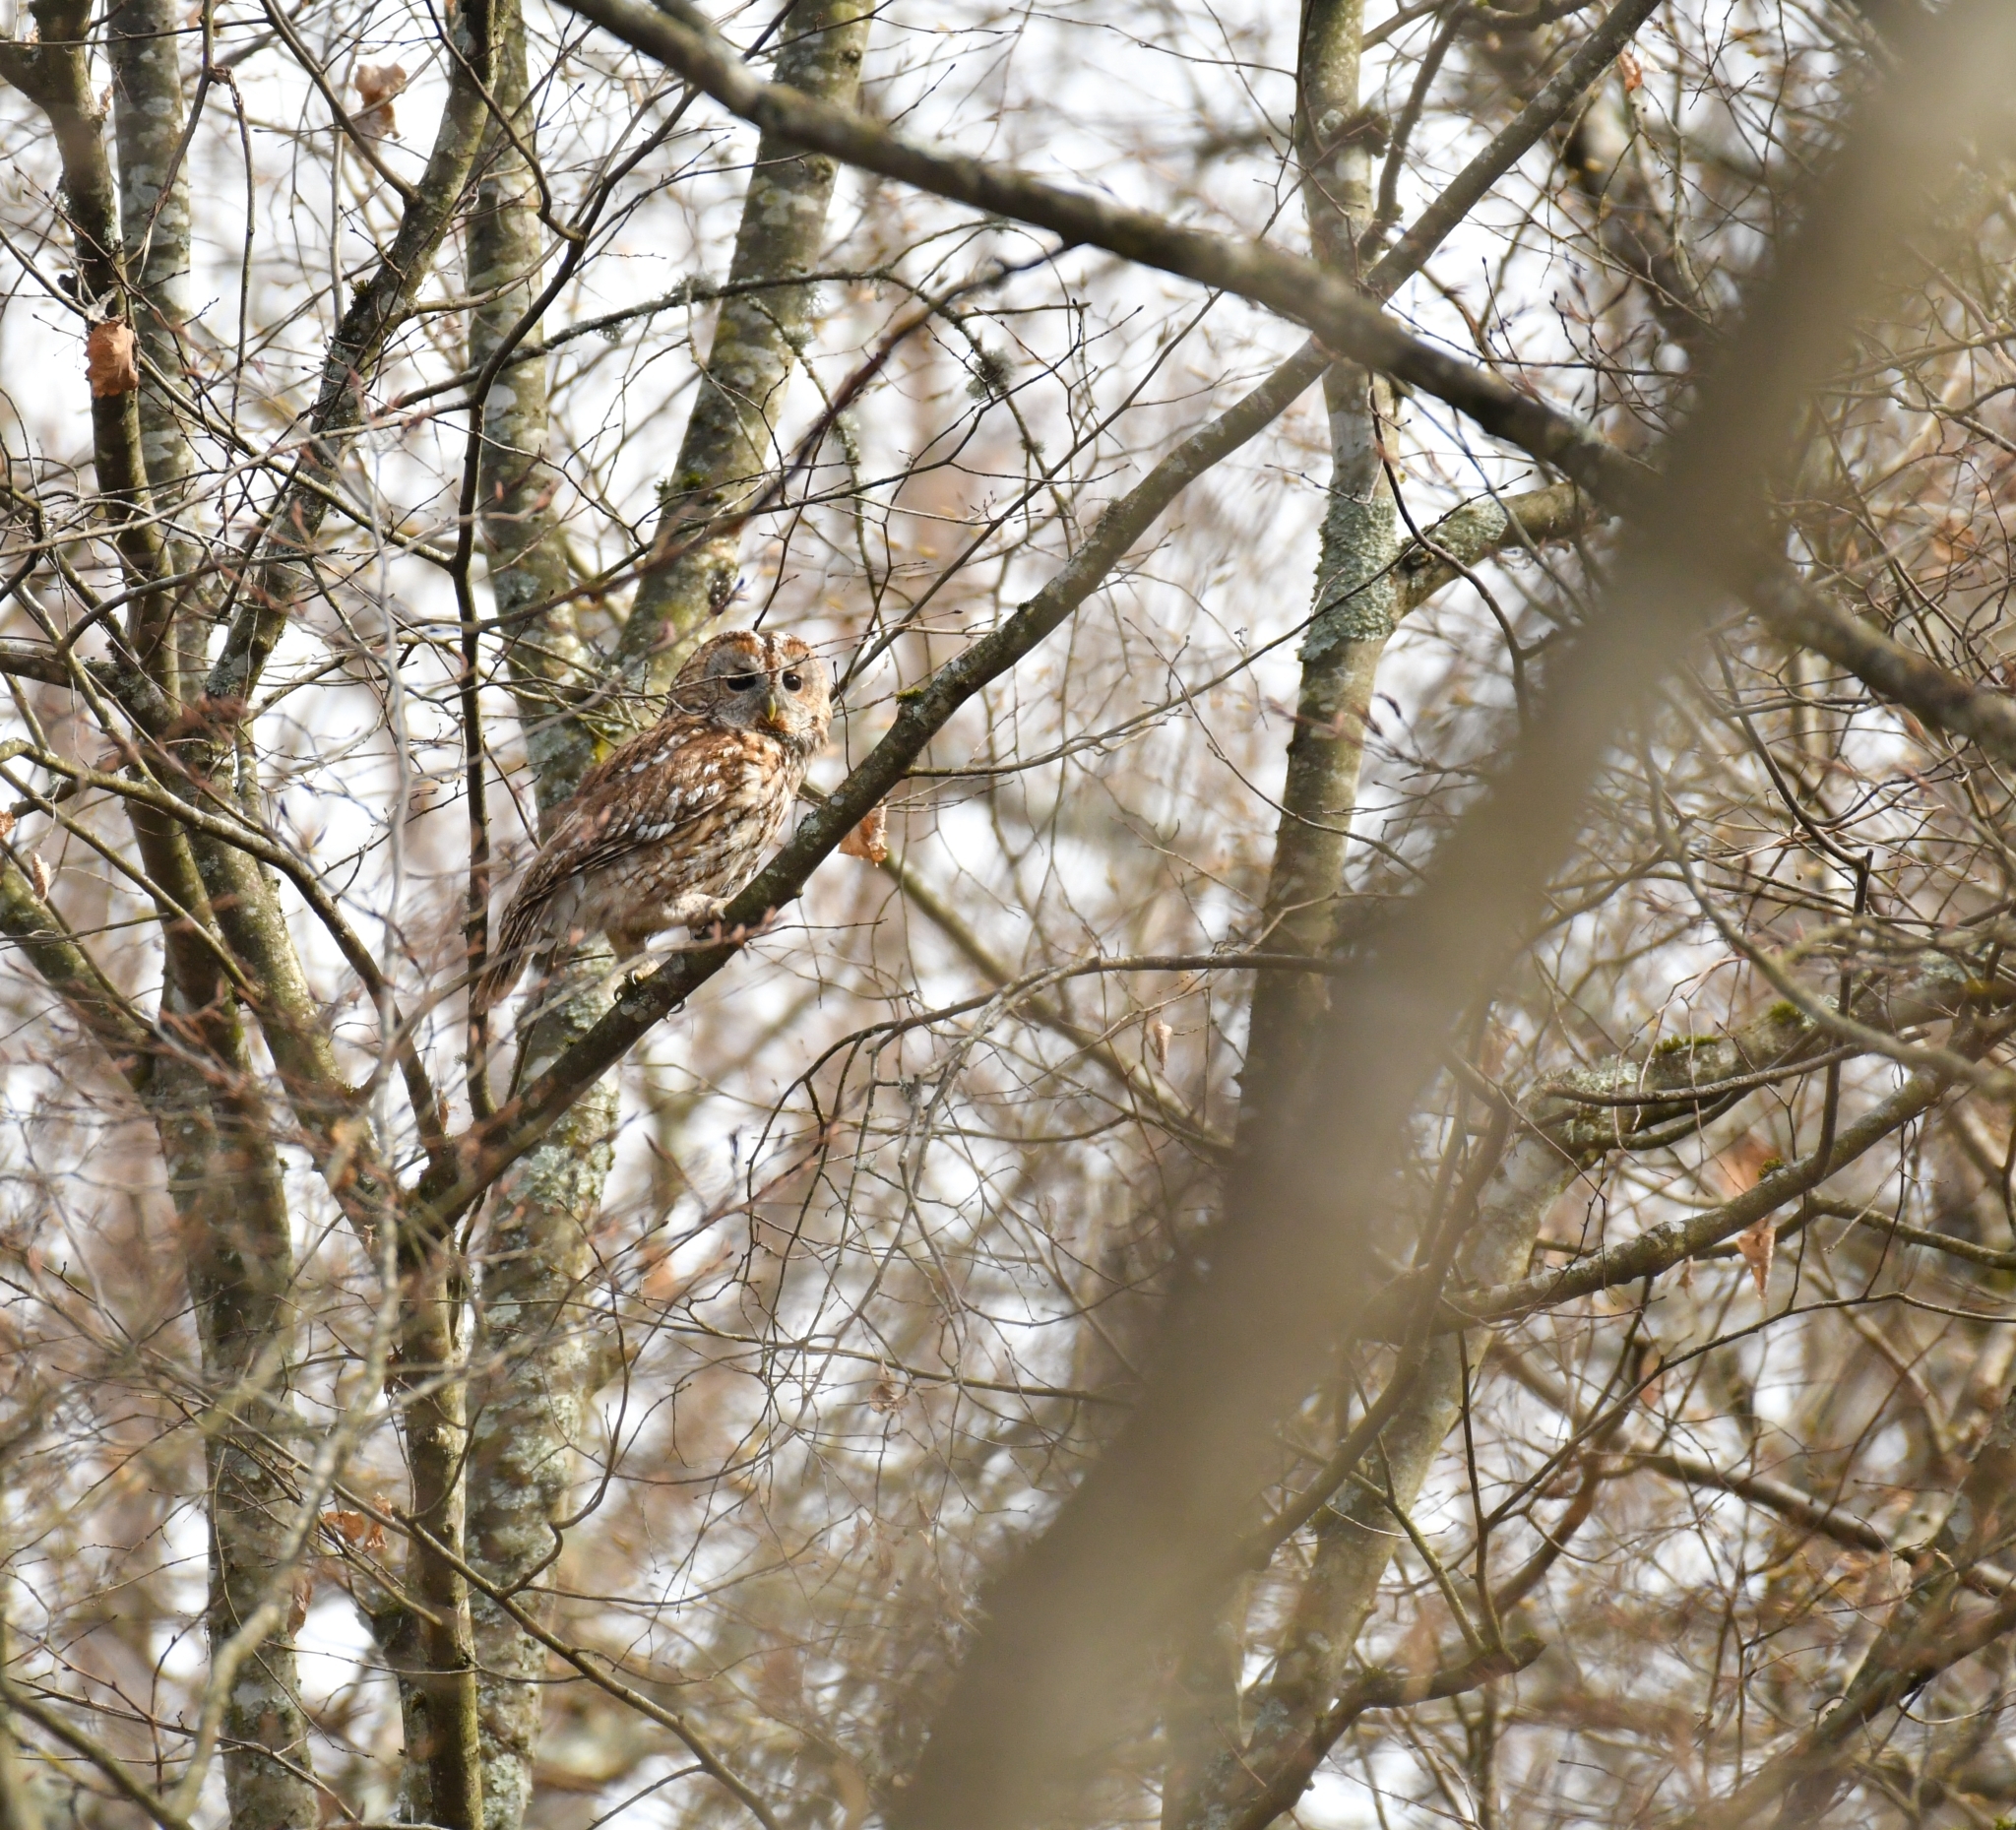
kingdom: Animalia
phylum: Chordata
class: Aves
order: Strigiformes
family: Strigidae
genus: Strix
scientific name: Strix aluco
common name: Tawny owl
